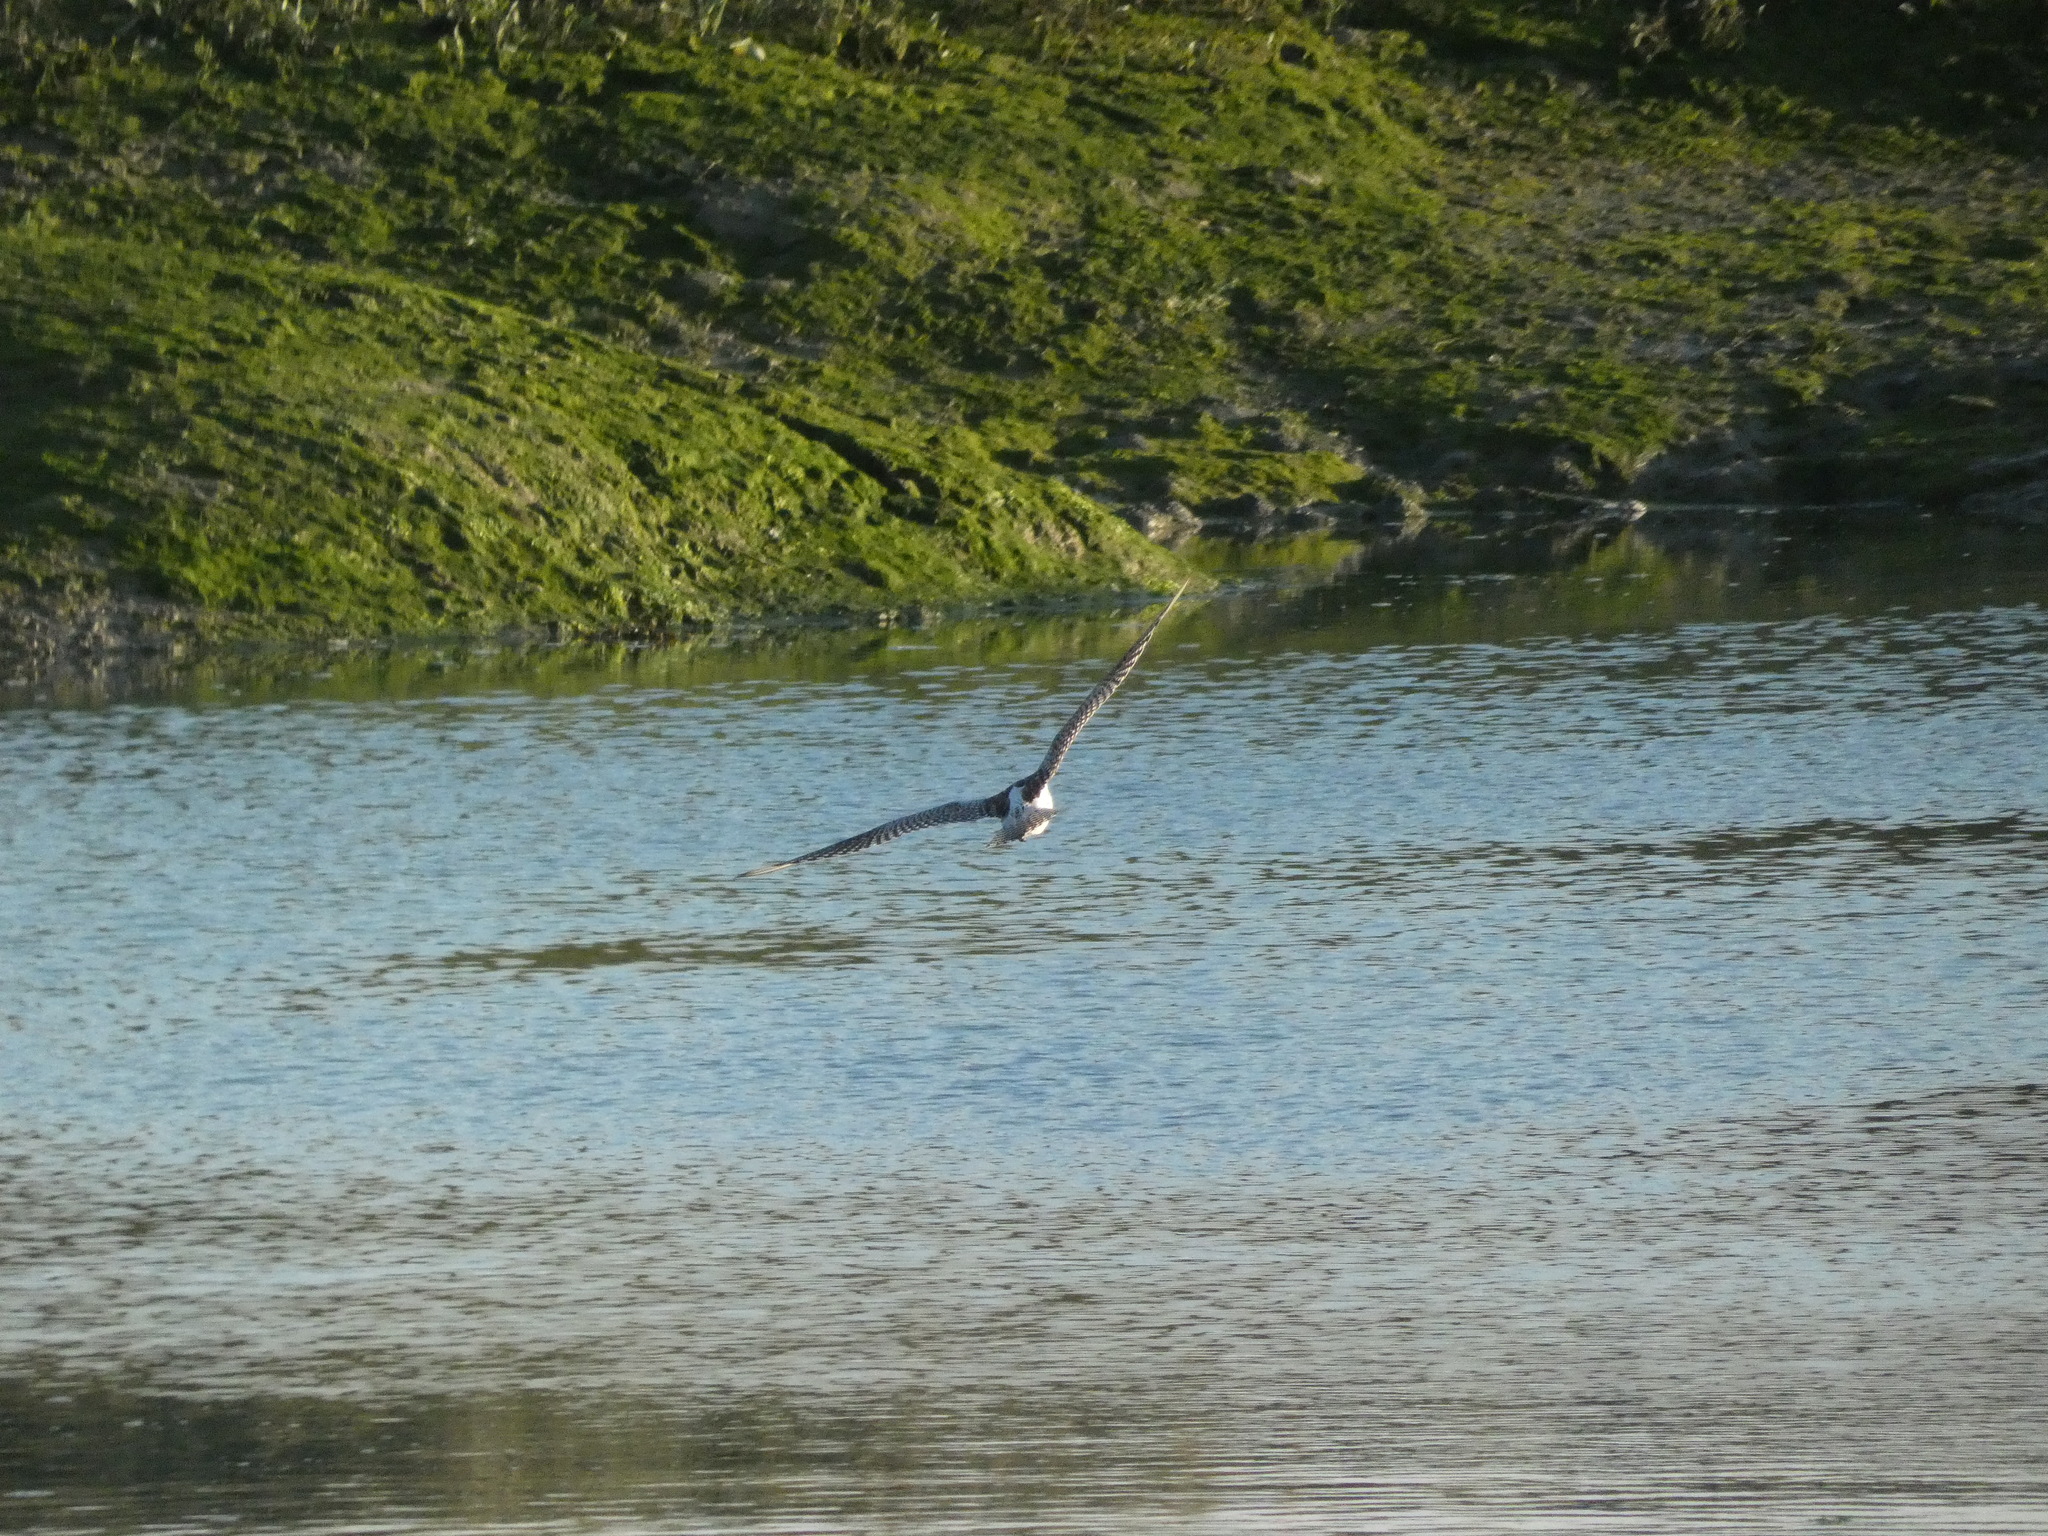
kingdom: Animalia
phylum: Chordata
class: Aves
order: Charadriiformes
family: Scolopacidae
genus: Numenius
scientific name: Numenius arquata
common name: Eurasian curlew
